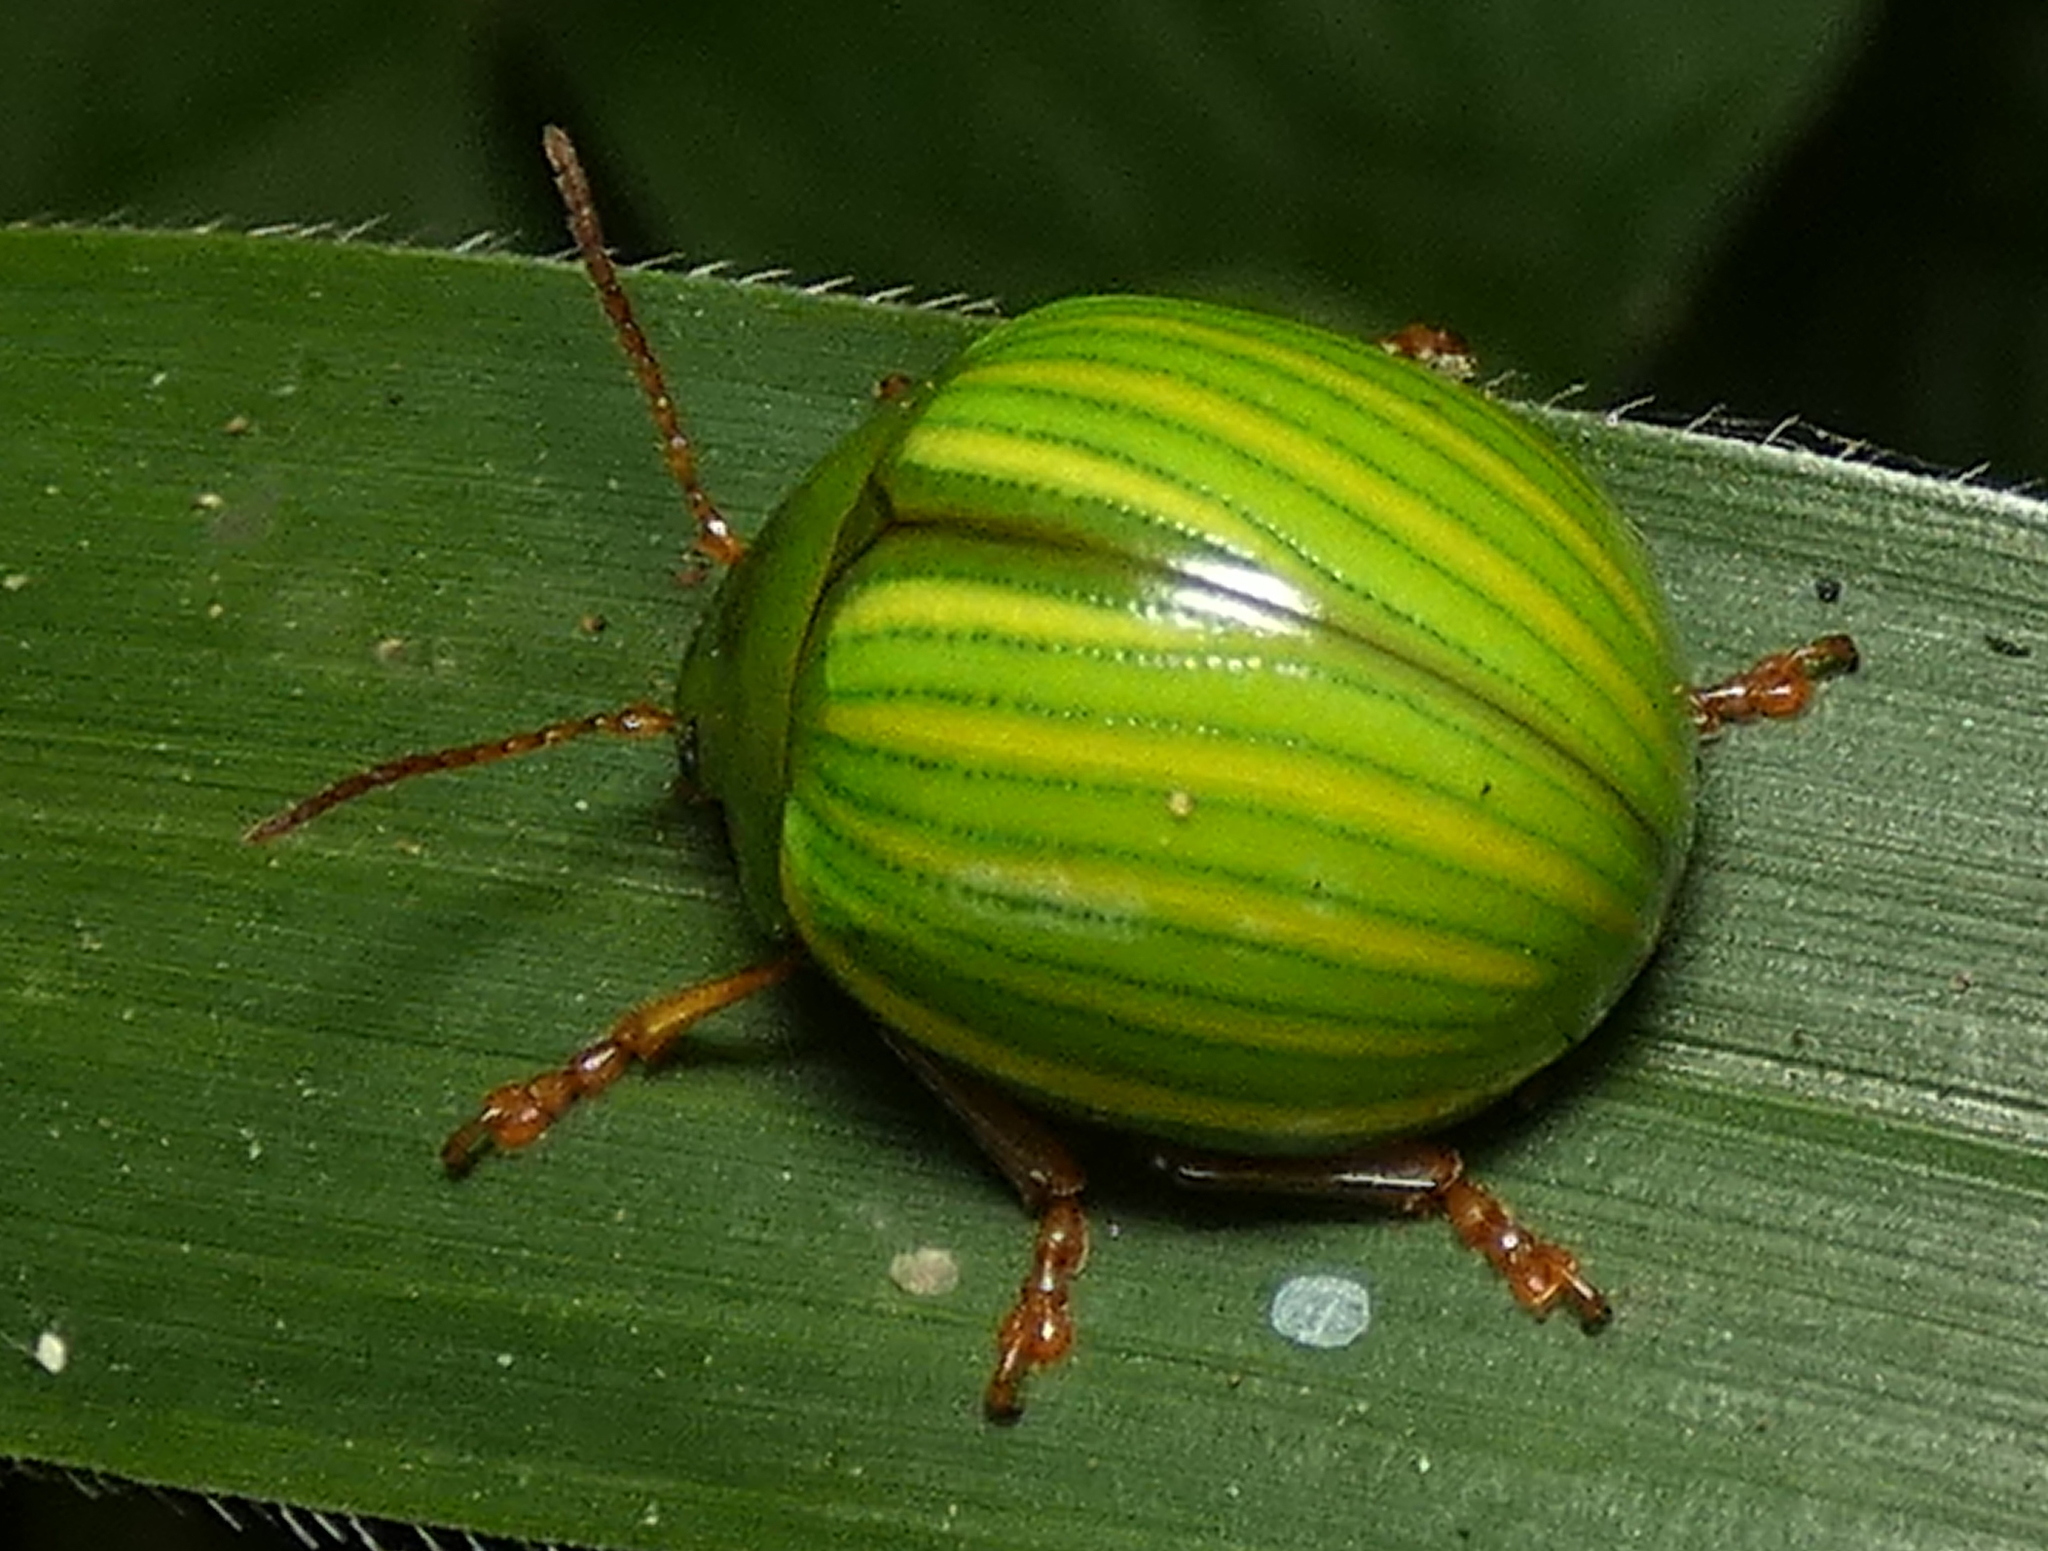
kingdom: Animalia
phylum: Arthropoda
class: Insecta
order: Coleoptera
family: Chrysomelidae
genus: Platyphora
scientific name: Platyphora
